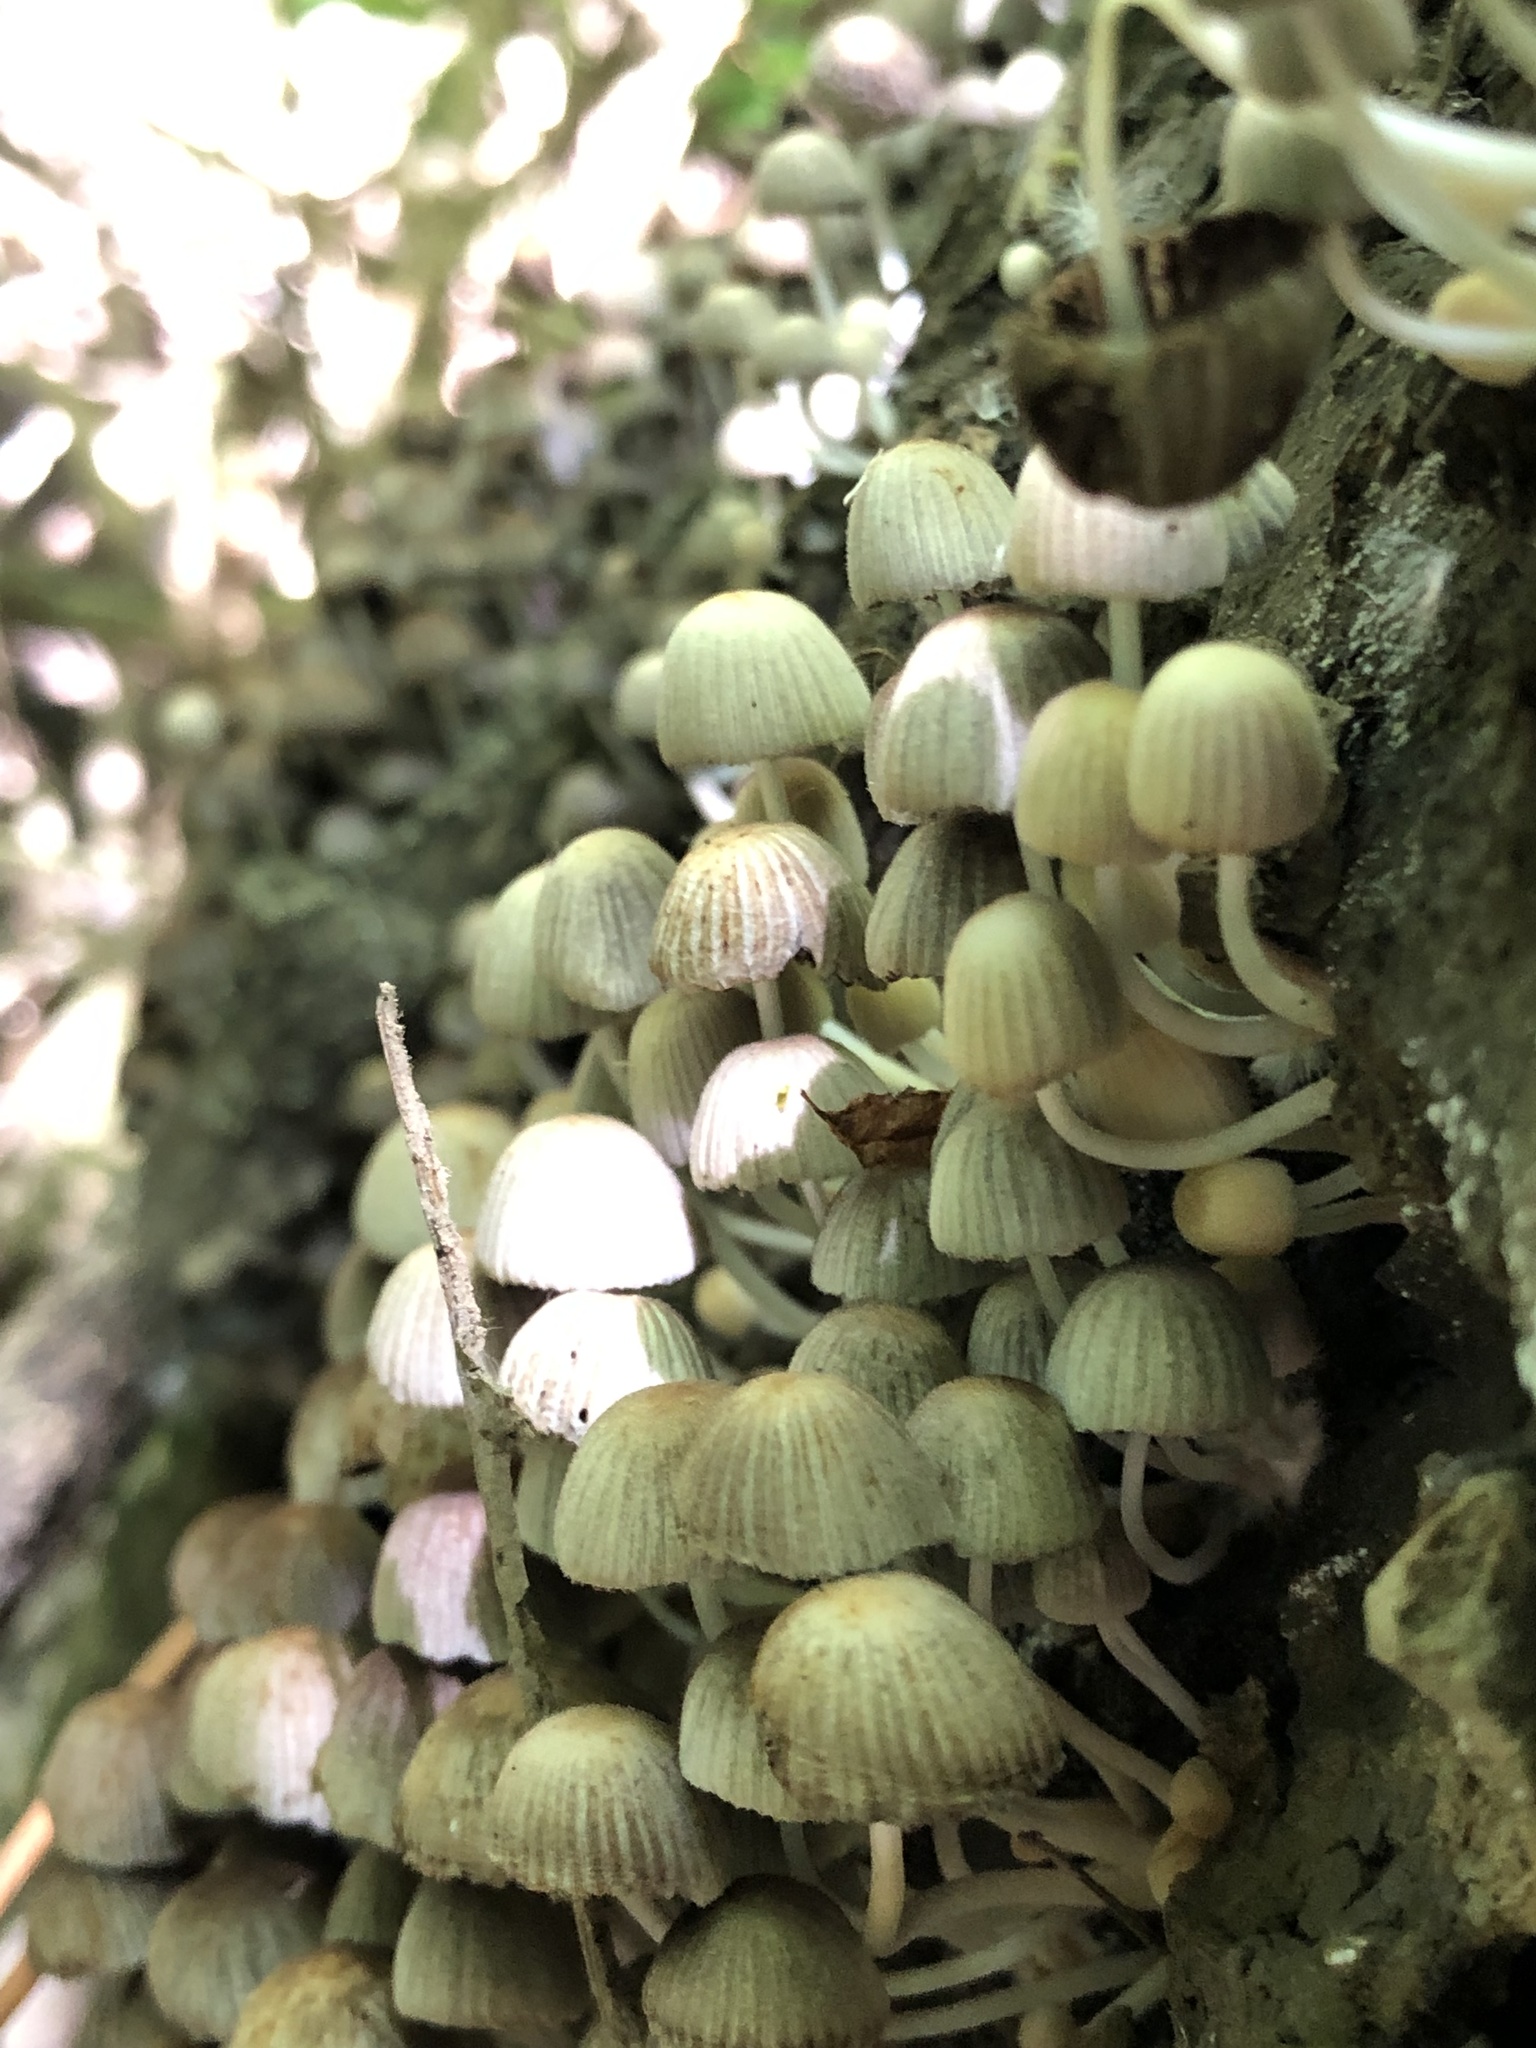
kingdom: Fungi
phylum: Basidiomycota
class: Agaricomycetes
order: Agaricales
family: Psathyrellaceae
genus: Coprinellus
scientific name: Coprinellus disseminatus
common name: Fairies' bonnets
